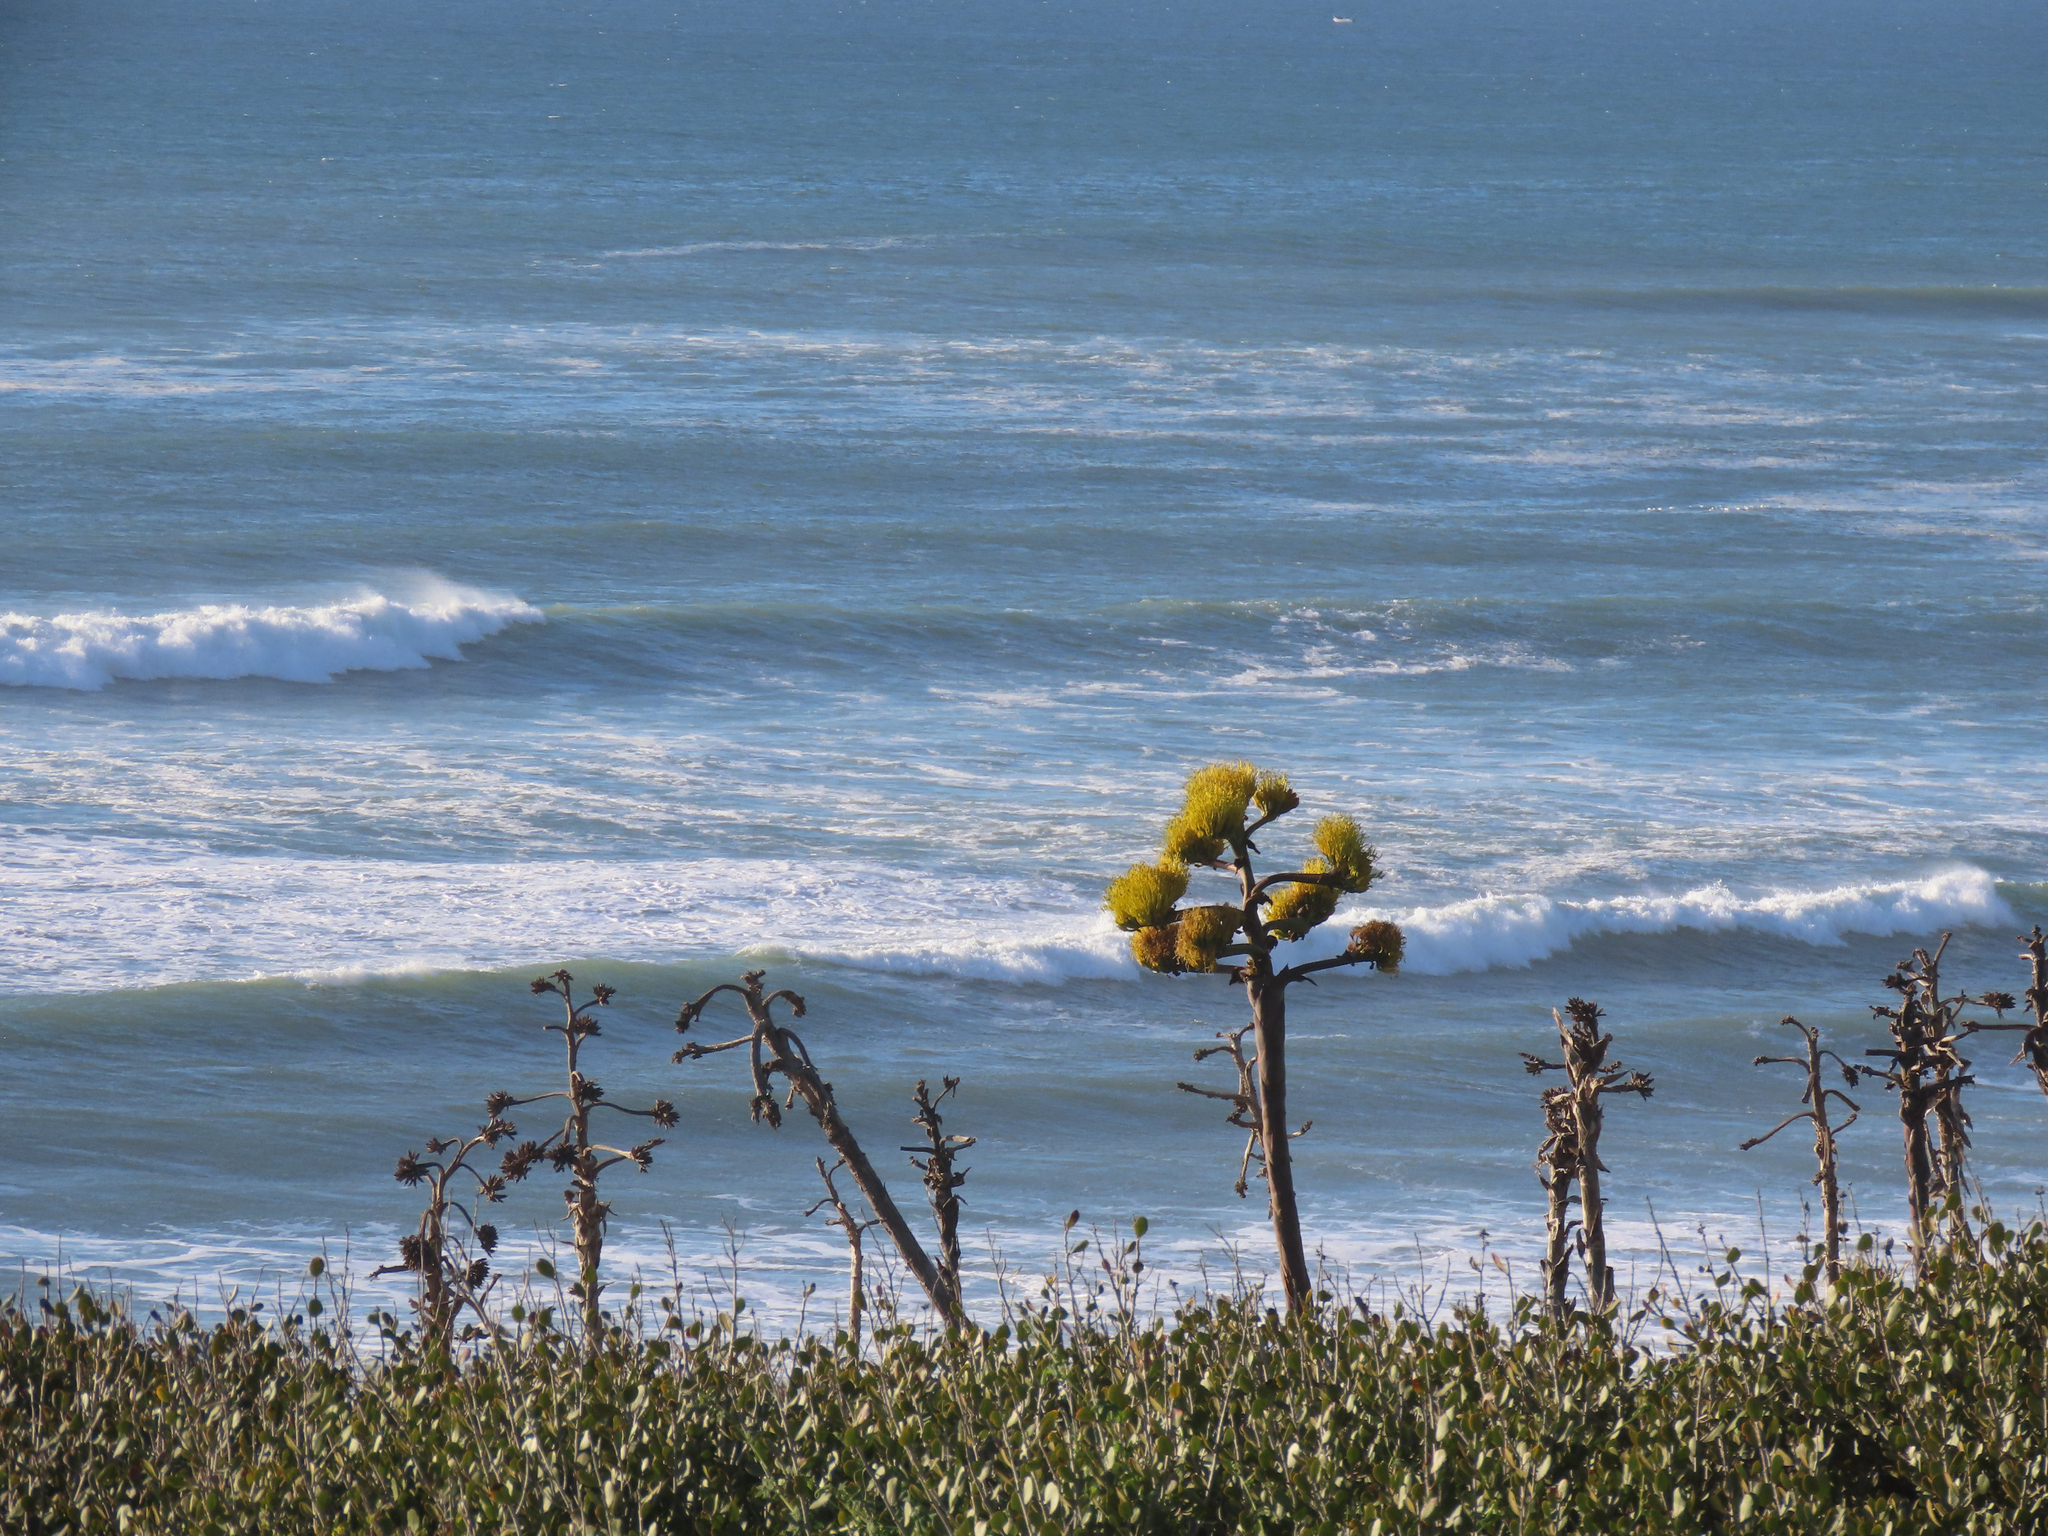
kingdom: Plantae
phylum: Tracheophyta
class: Liliopsida
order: Asparagales
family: Asparagaceae
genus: Agave
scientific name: Agave shawii
